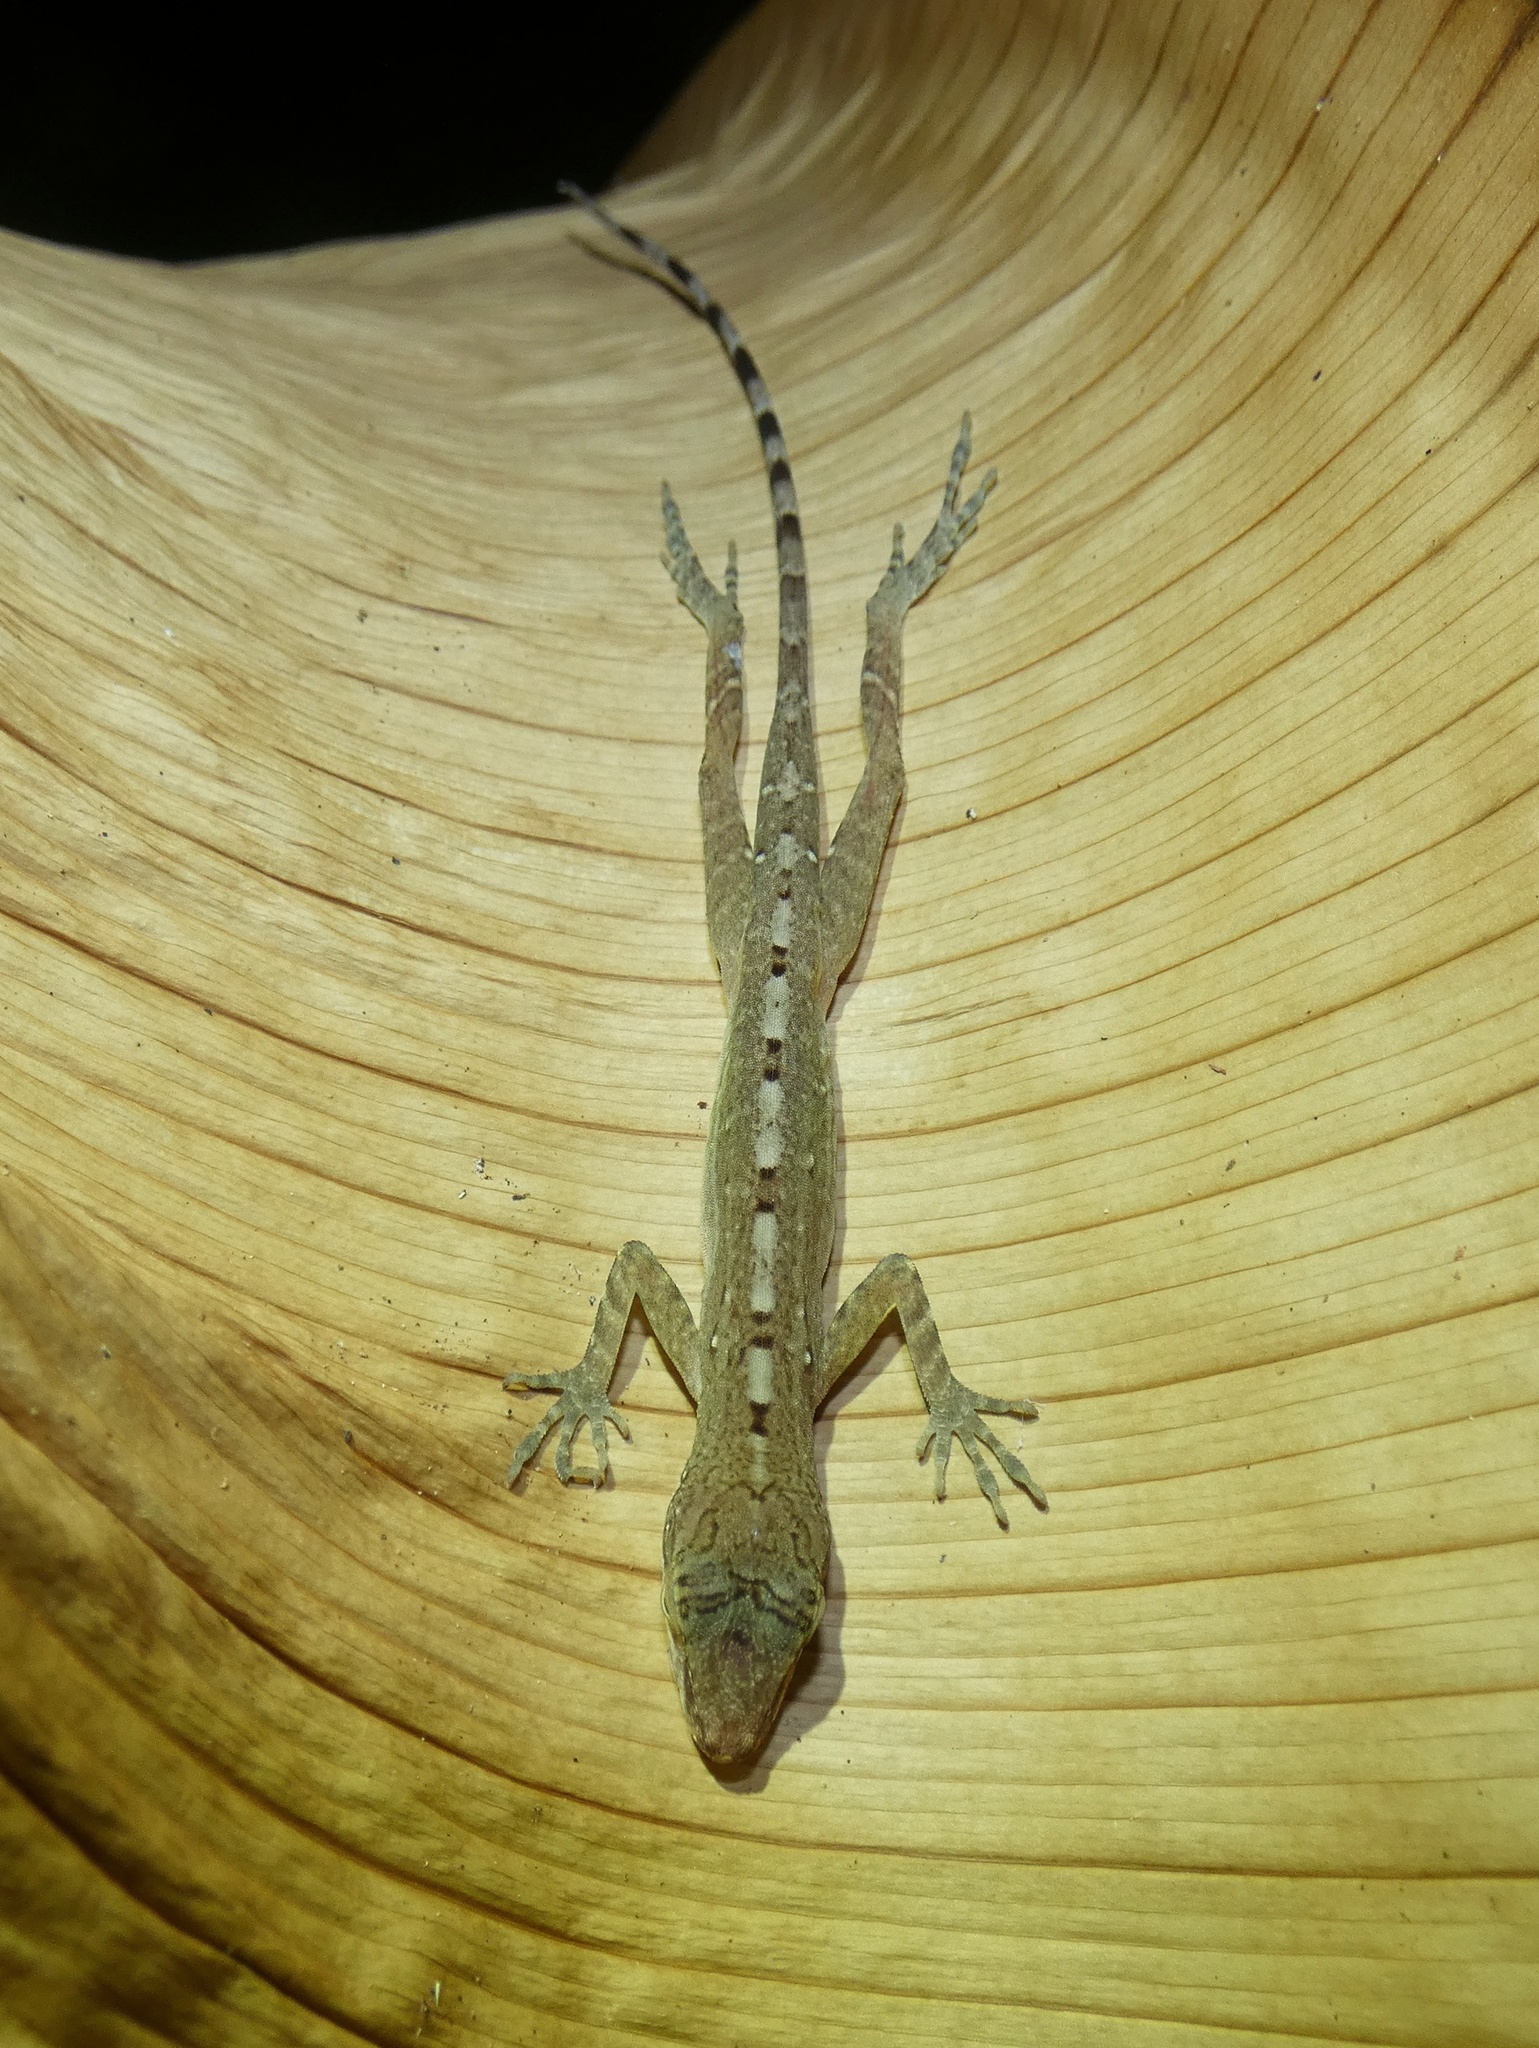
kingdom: Animalia
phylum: Chordata
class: Squamata
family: Dactyloidae
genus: Anolis
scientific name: Anolis apletophallus
